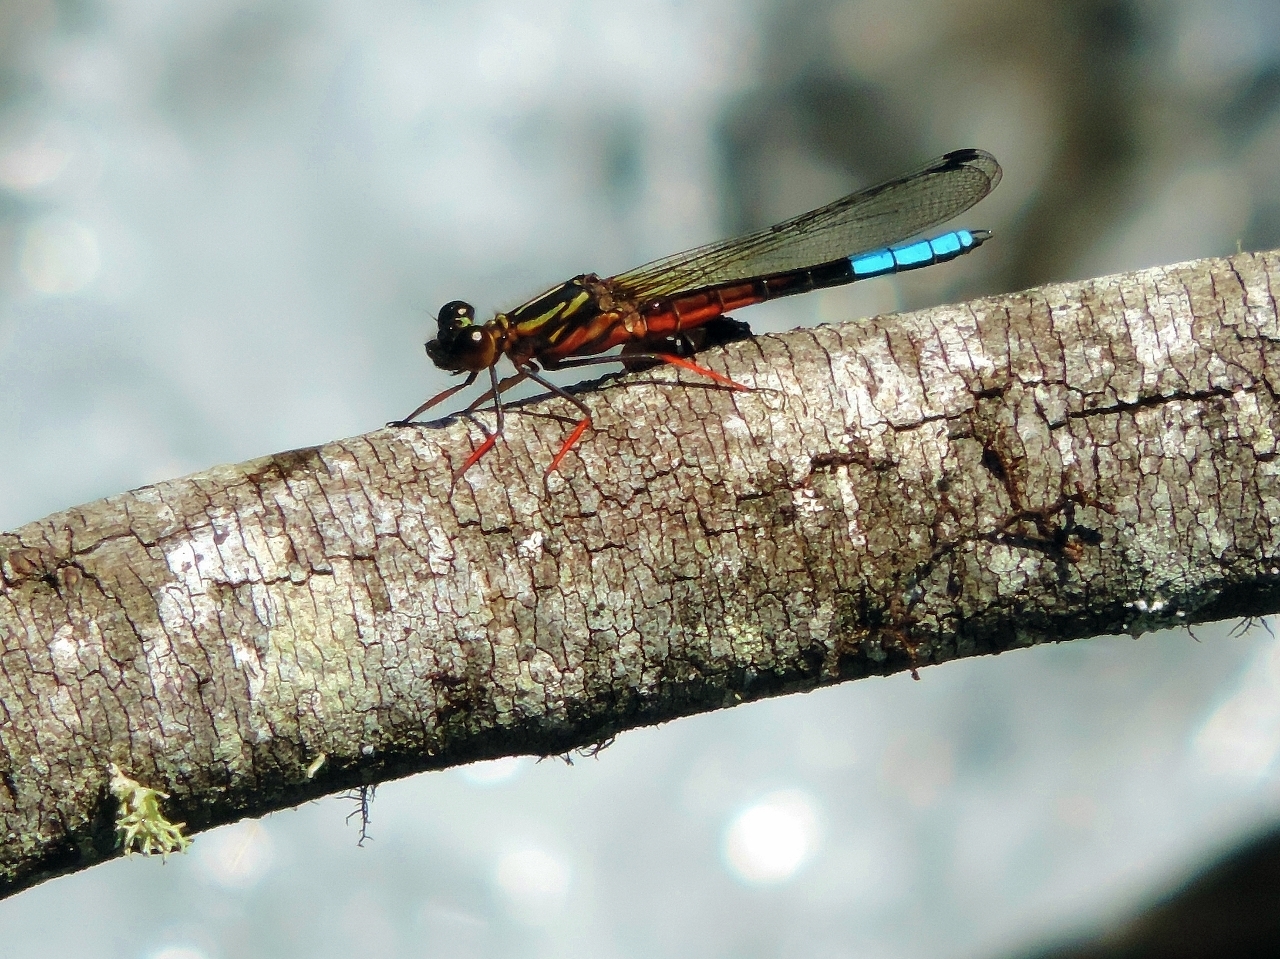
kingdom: Animalia
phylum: Arthropoda
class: Insecta
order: Odonata
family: Chlorocyphidae
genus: Platycypha
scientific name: Platycypha inyangae
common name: Inyanga jewel
